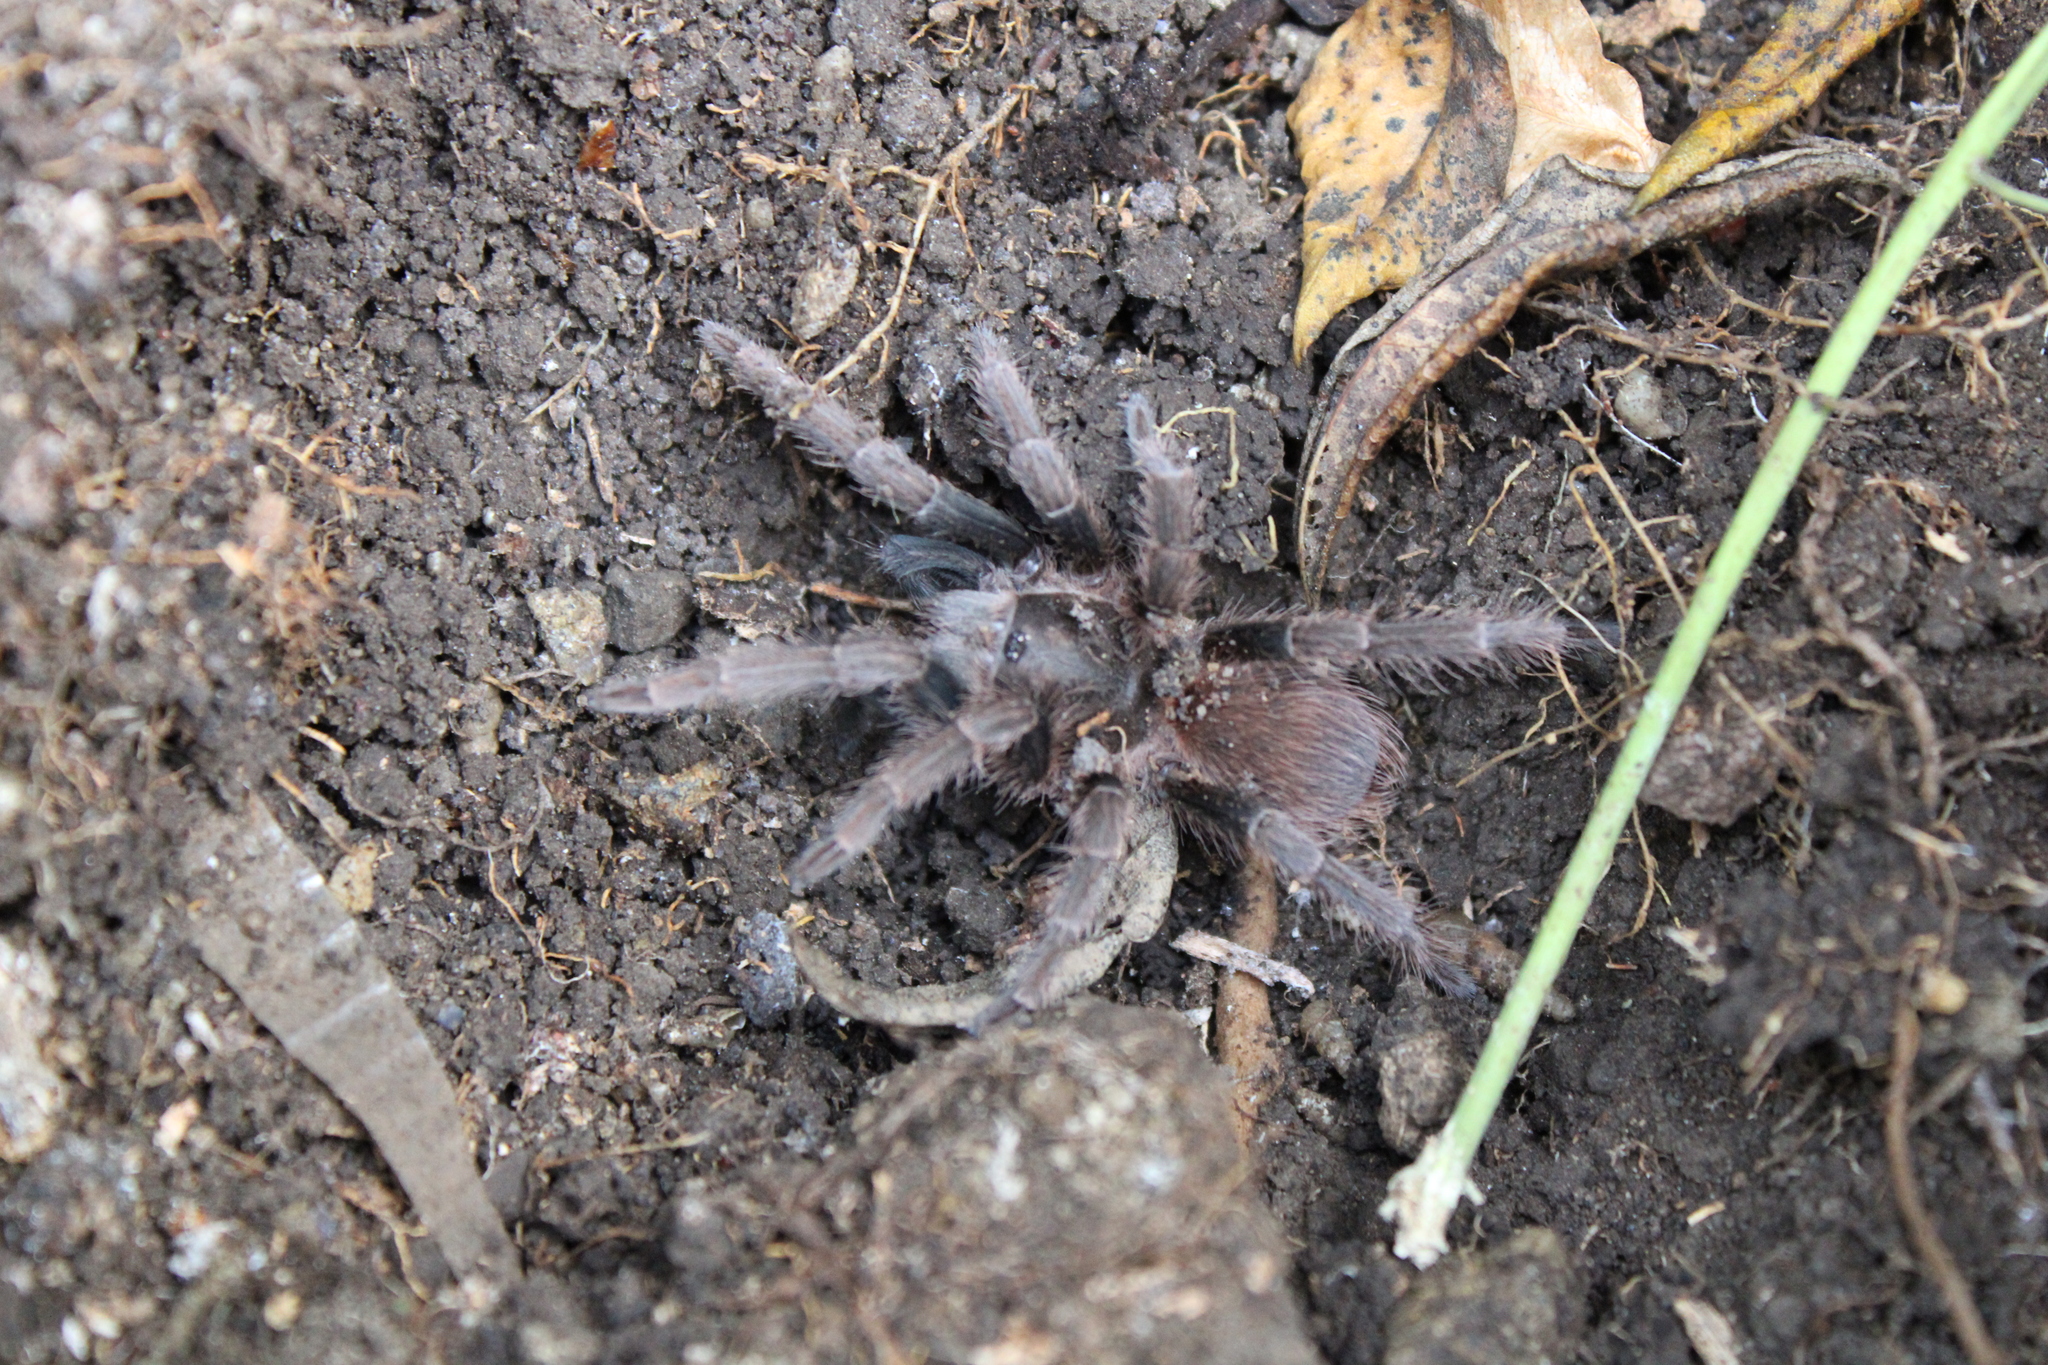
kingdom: Animalia
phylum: Arthropoda
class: Arachnida
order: Araneae
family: Theraphosidae
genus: Acanthoscurria
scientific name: Acanthoscurria maga
